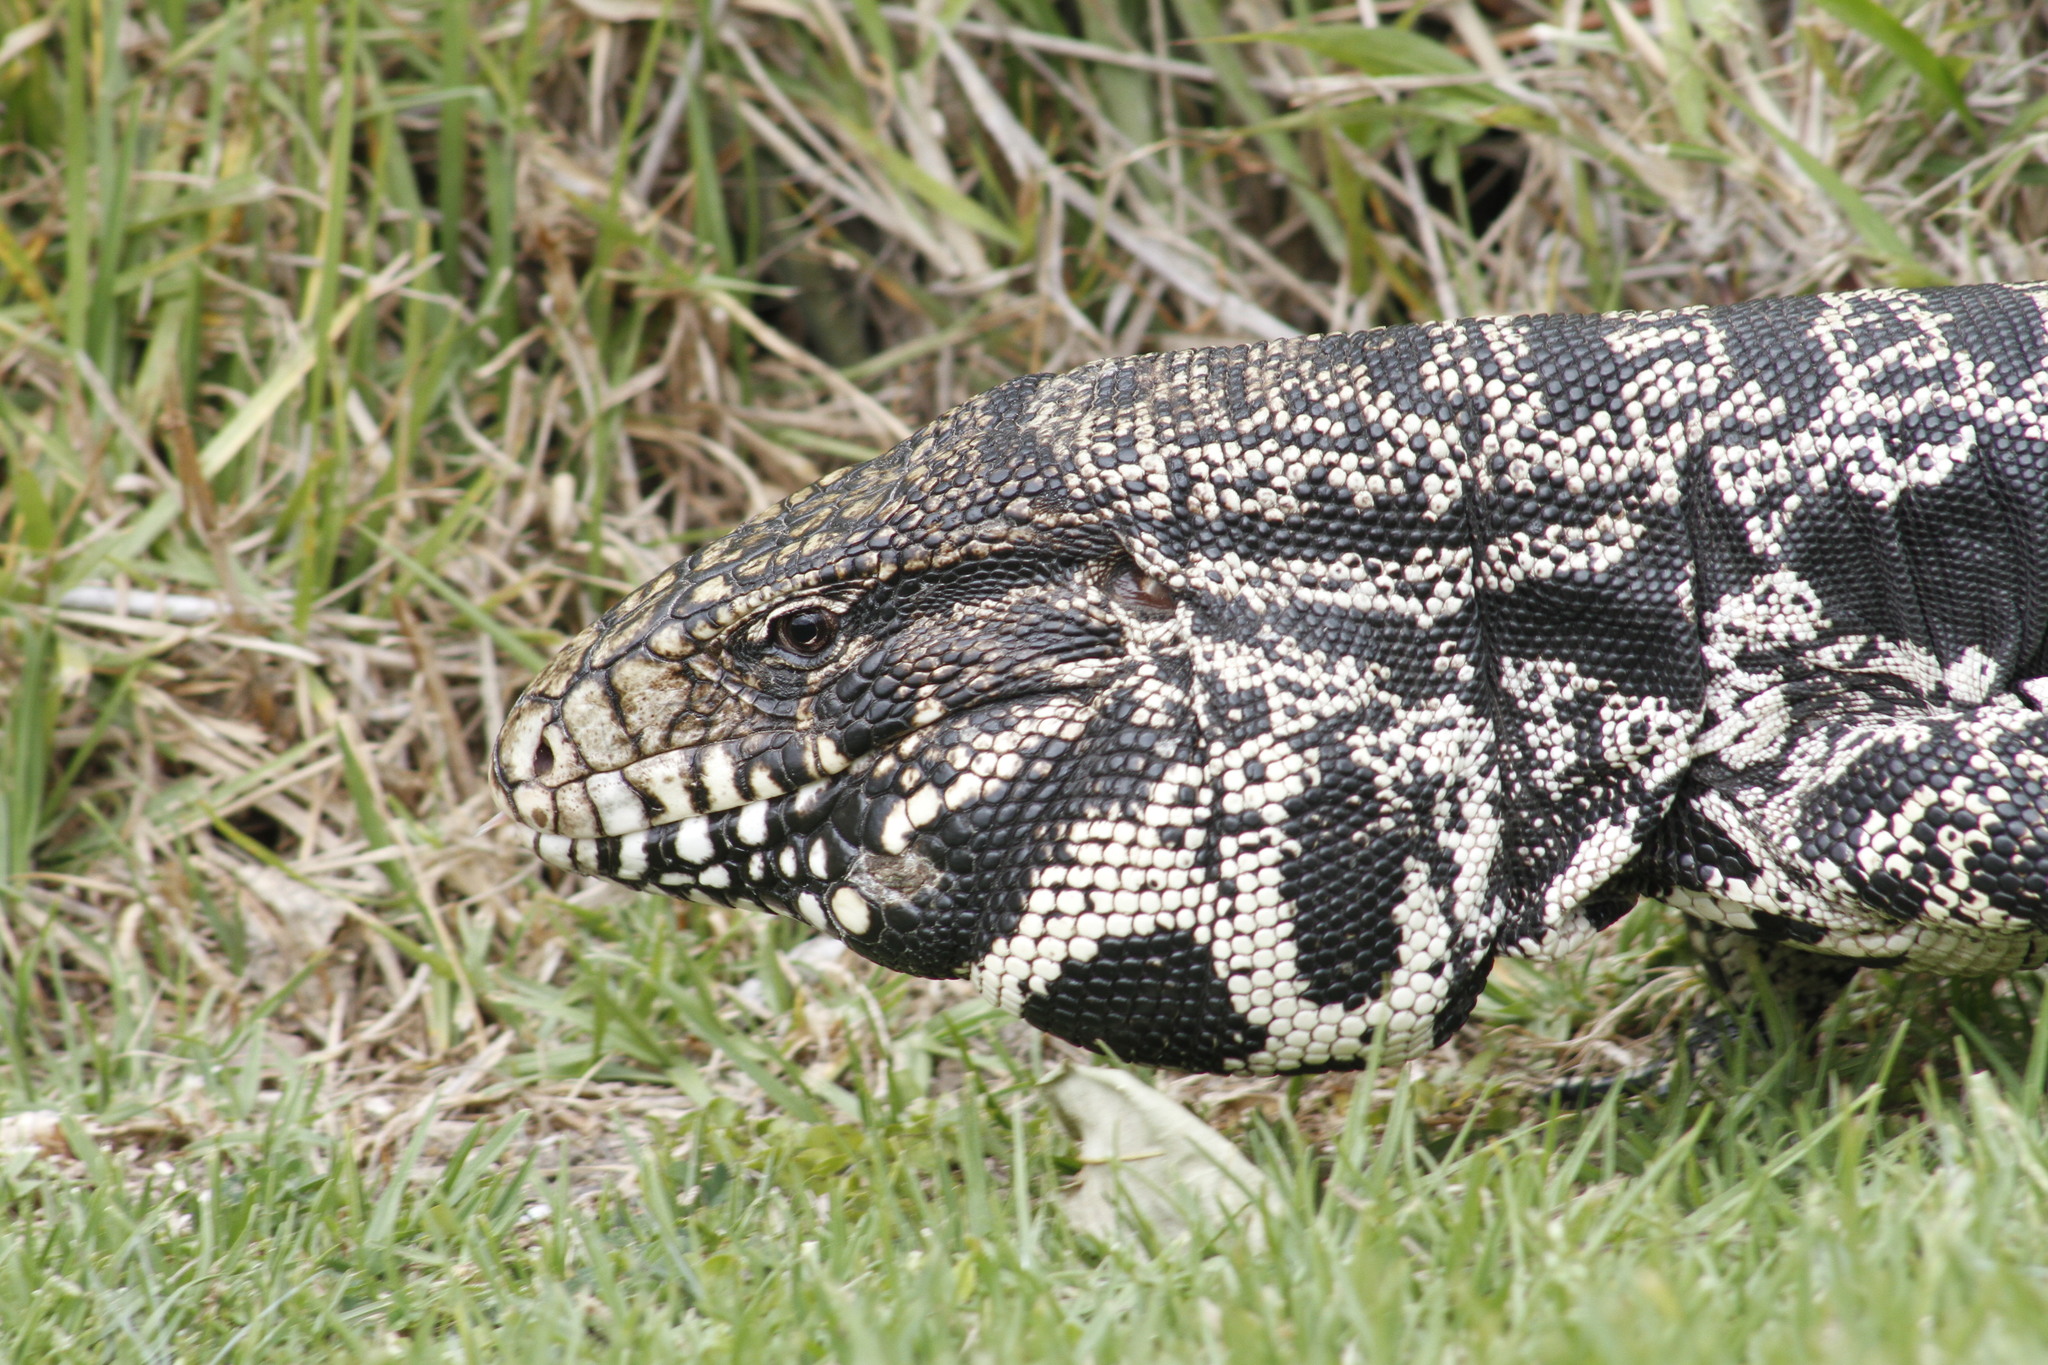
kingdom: Animalia
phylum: Chordata
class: Squamata
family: Teiidae
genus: Salvator
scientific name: Salvator merianae
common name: Argentine black and white tegu
